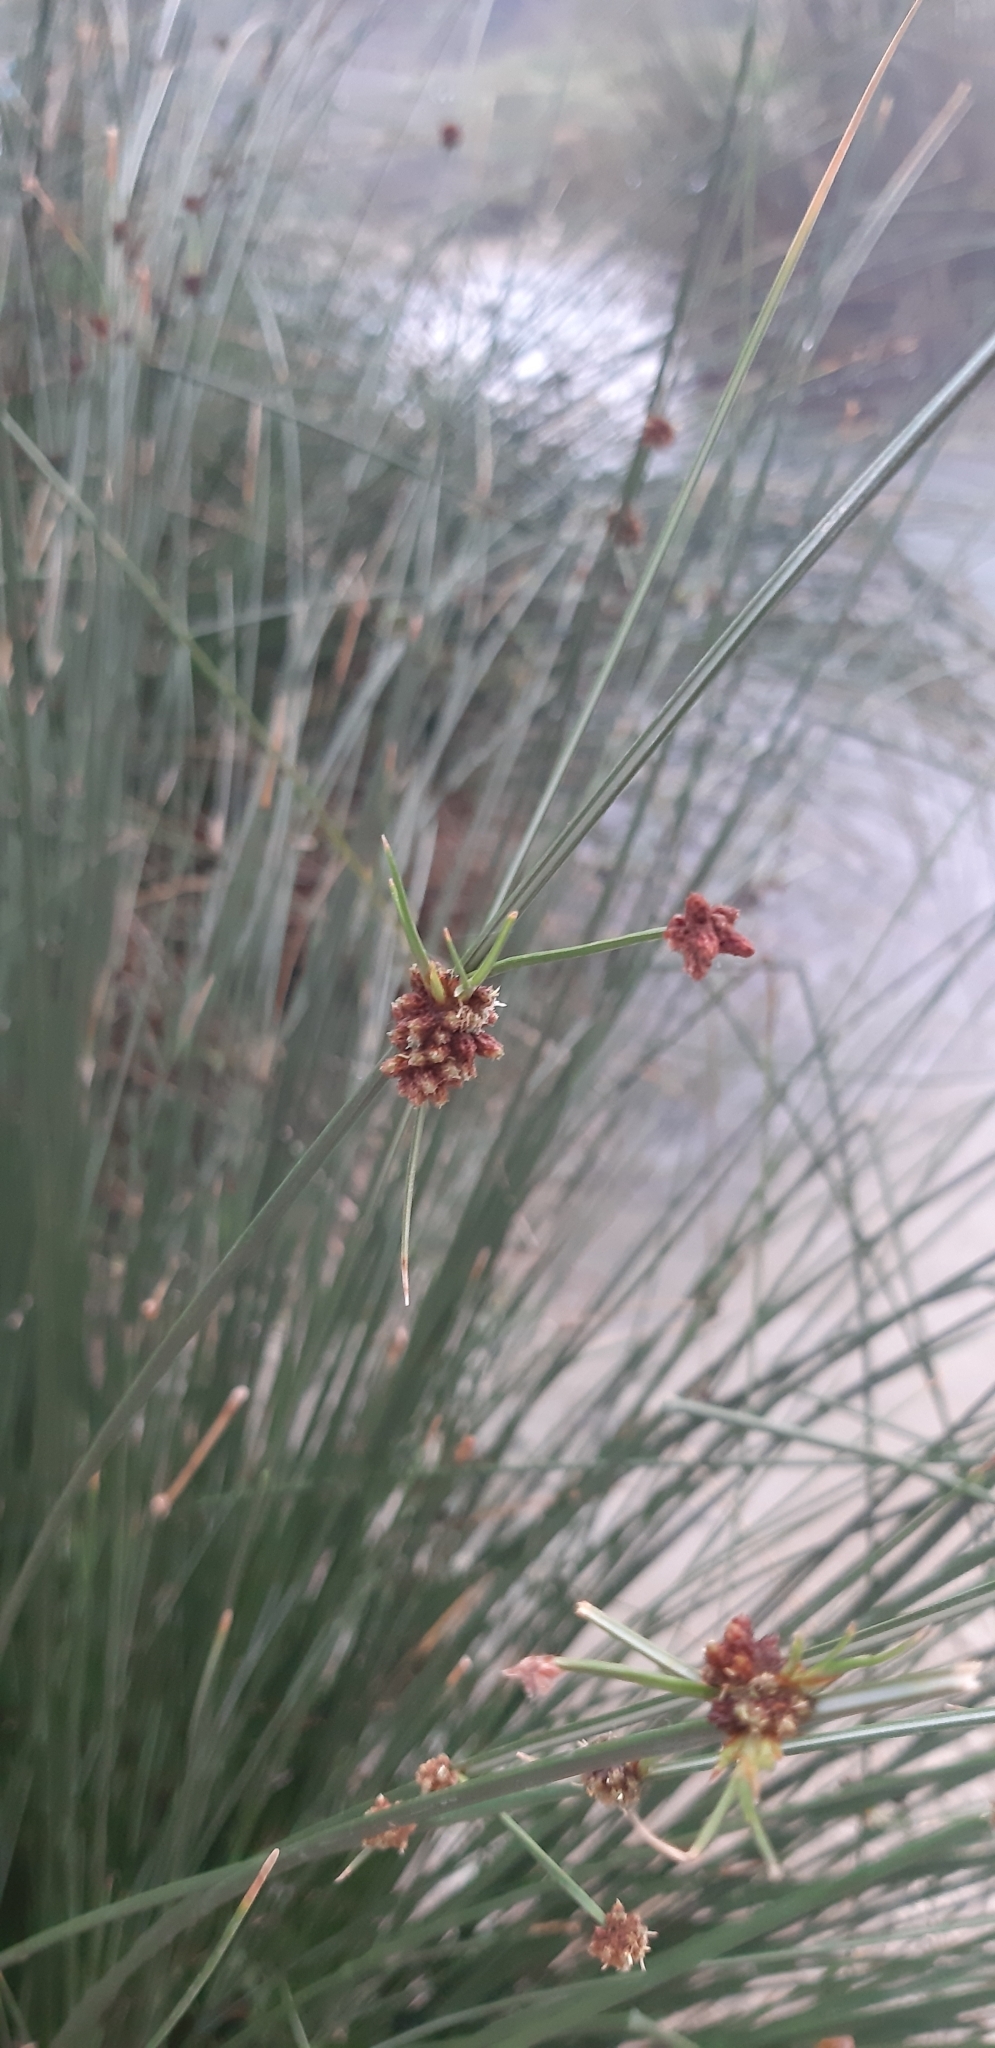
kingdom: Plantae
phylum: Tracheophyta
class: Liliopsida
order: Poales
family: Cyperaceae
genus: Scirpoides
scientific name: Scirpoides holoschoenus
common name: Round-headed club-rush
